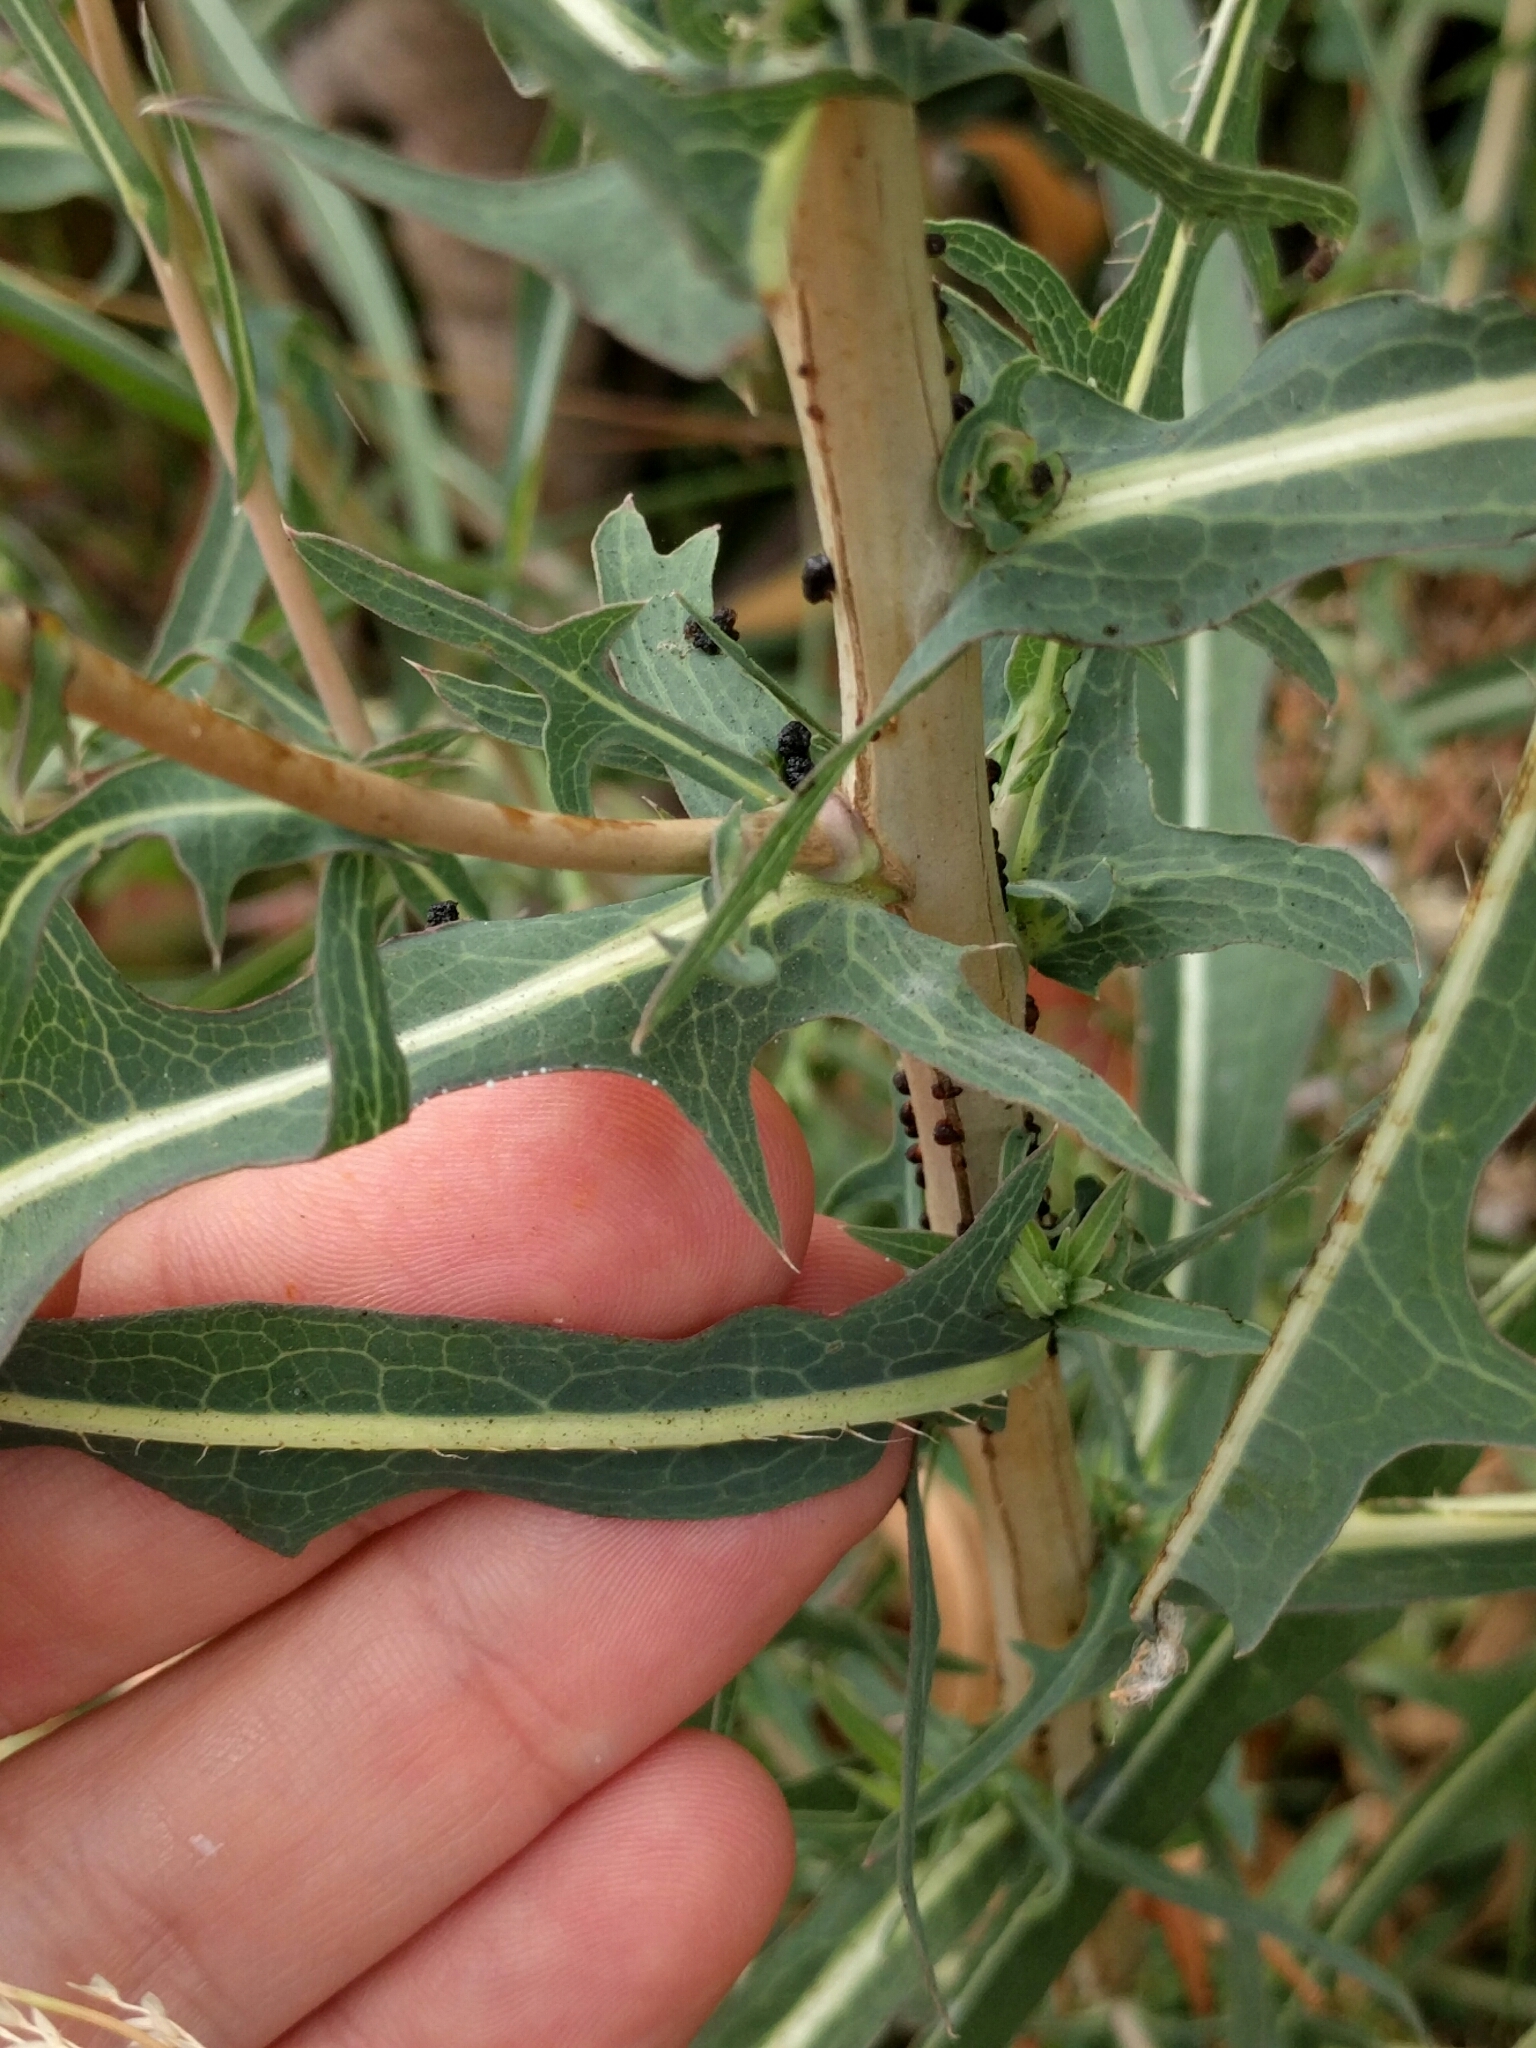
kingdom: Plantae
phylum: Tracheophyta
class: Magnoliopsida
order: Asterales
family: Asteraceae
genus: Lactuca
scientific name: Lactuca serriola
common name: Prickly lettuce
